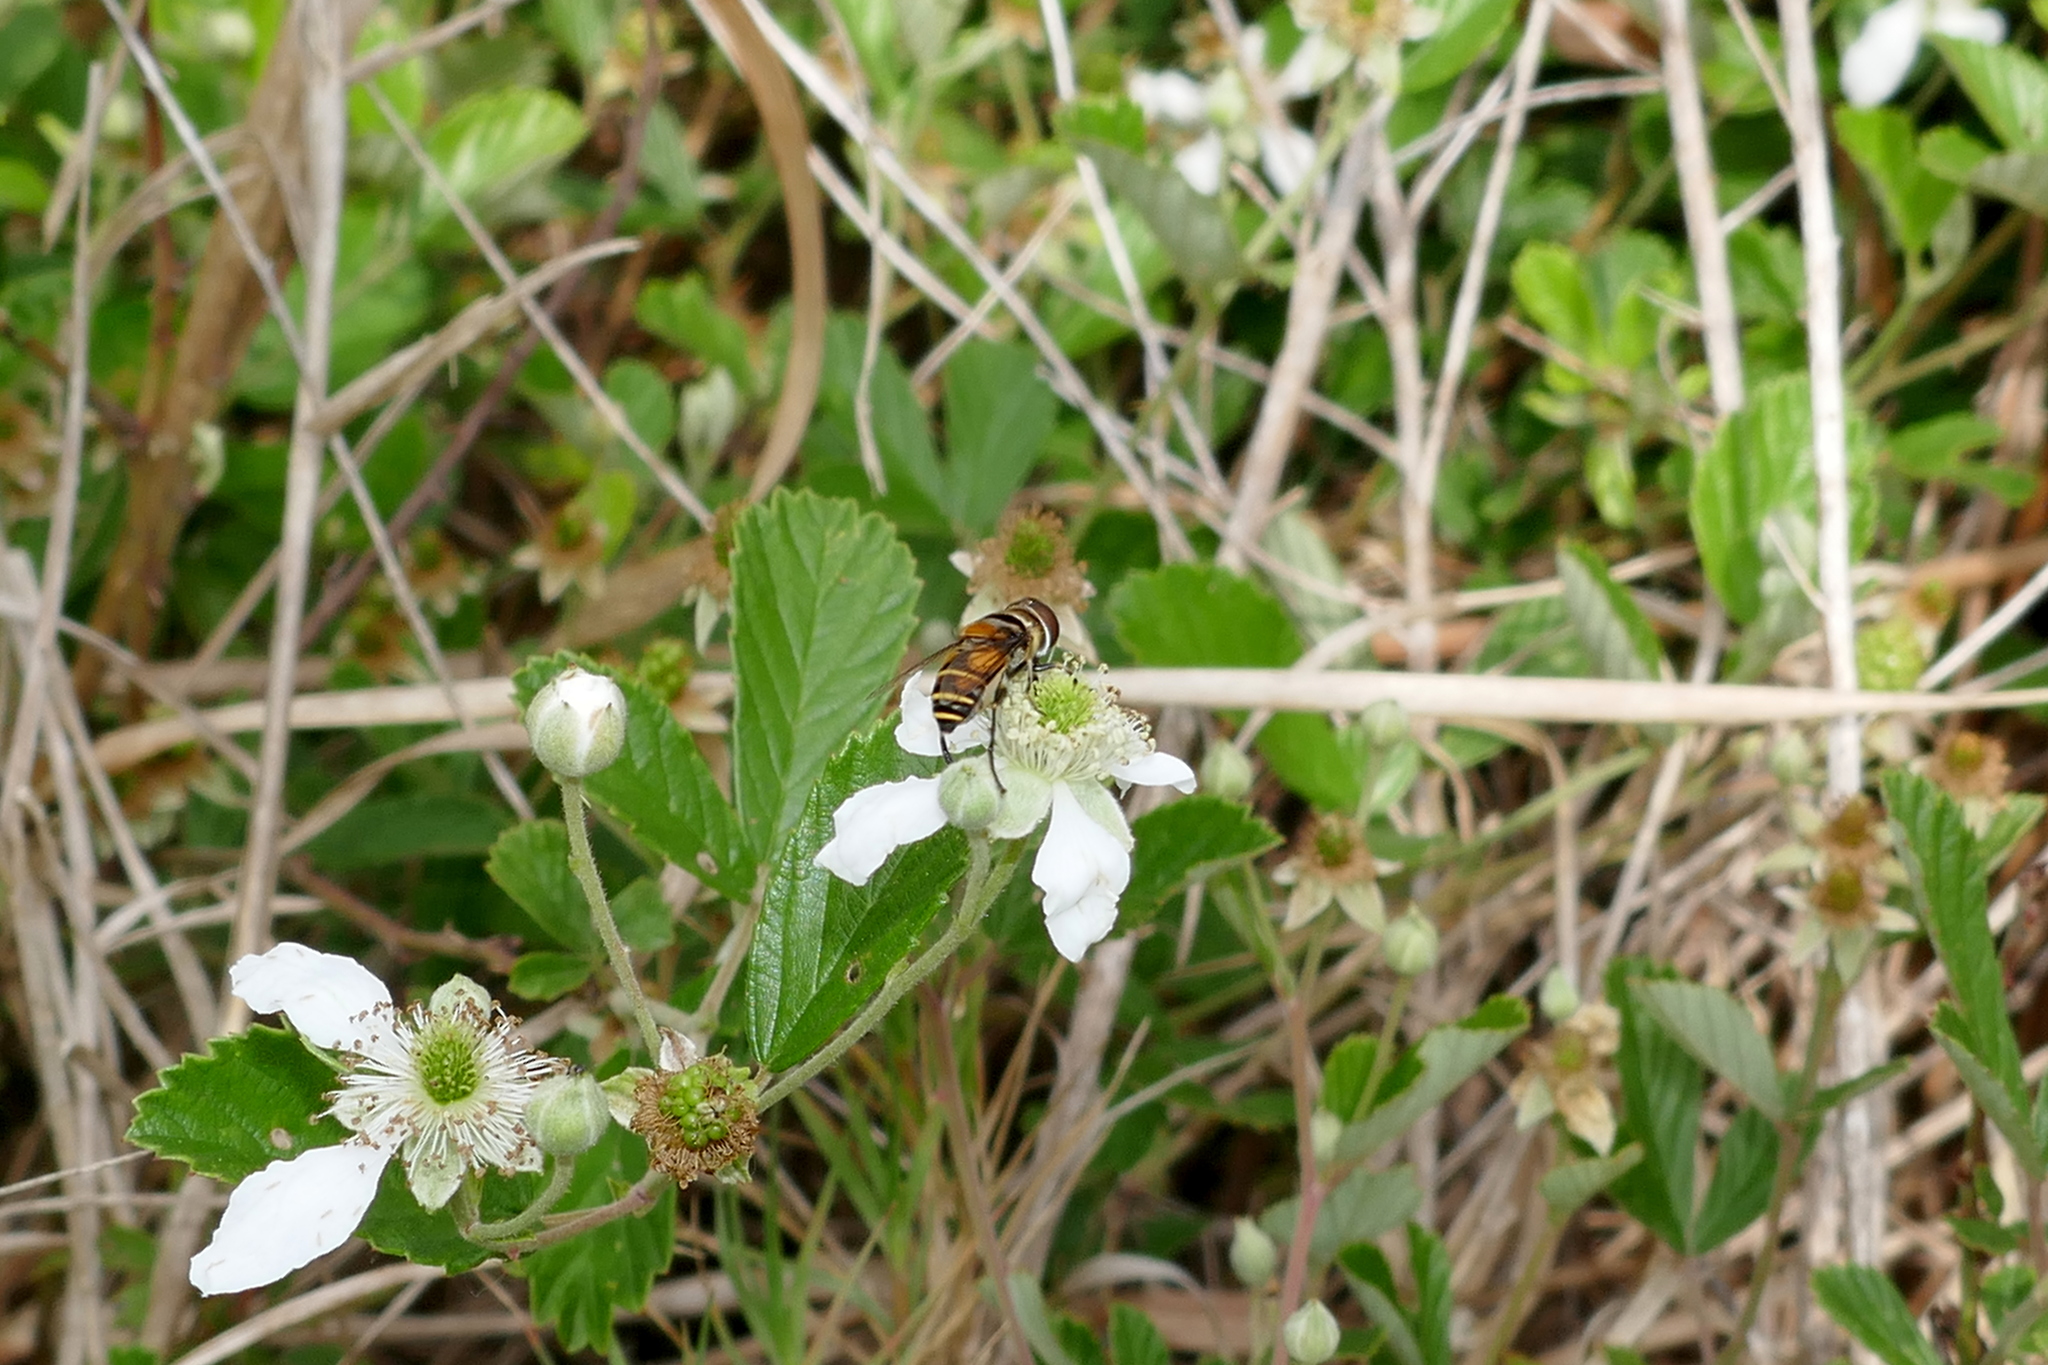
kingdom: Animalia
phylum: Arthropoda
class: Insecta
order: Diptera
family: Syrphidae
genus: Palpada
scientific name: Palpada agrorum
